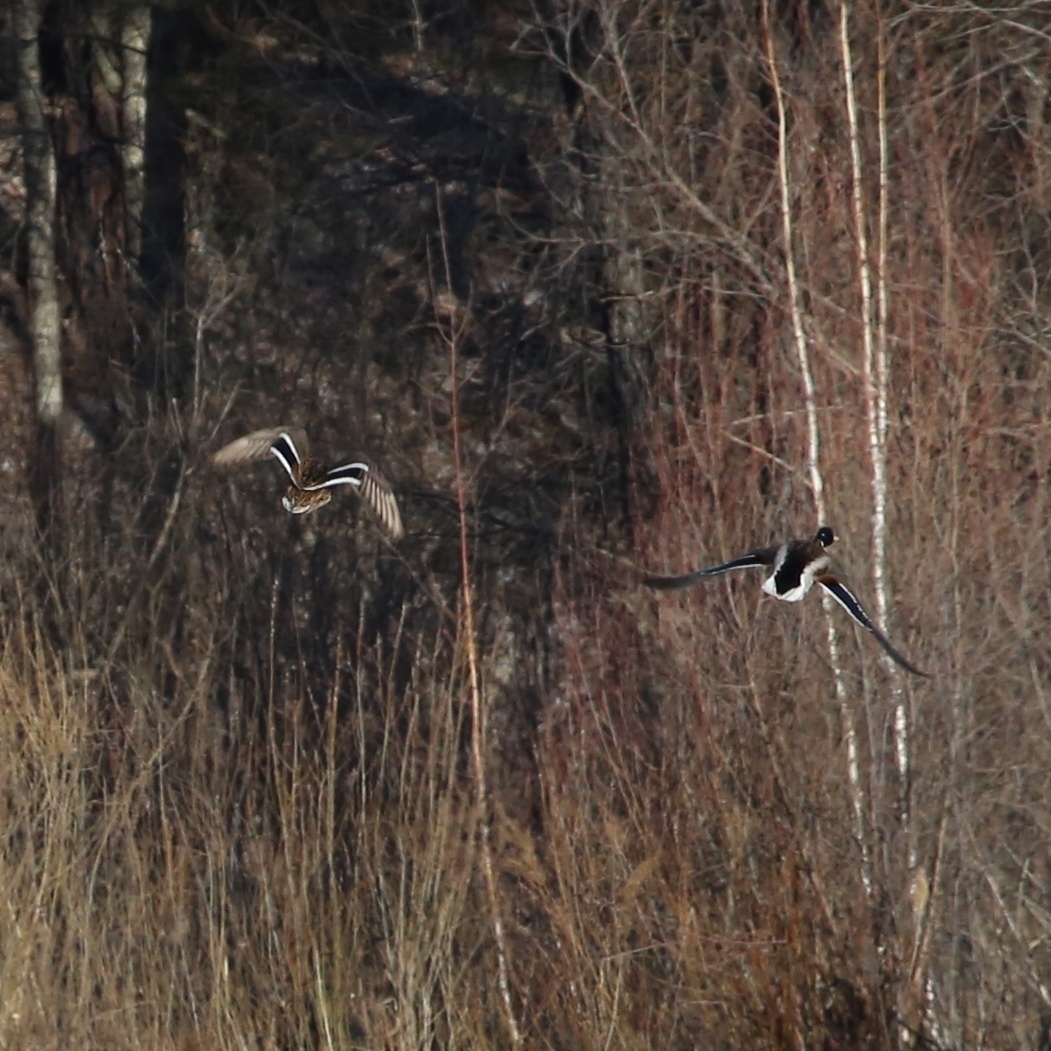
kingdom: Animalia
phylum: Chordata
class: Aves
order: Anseriformes
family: Anatidae
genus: Anas
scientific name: Anas platyrhynchos
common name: Mallard
